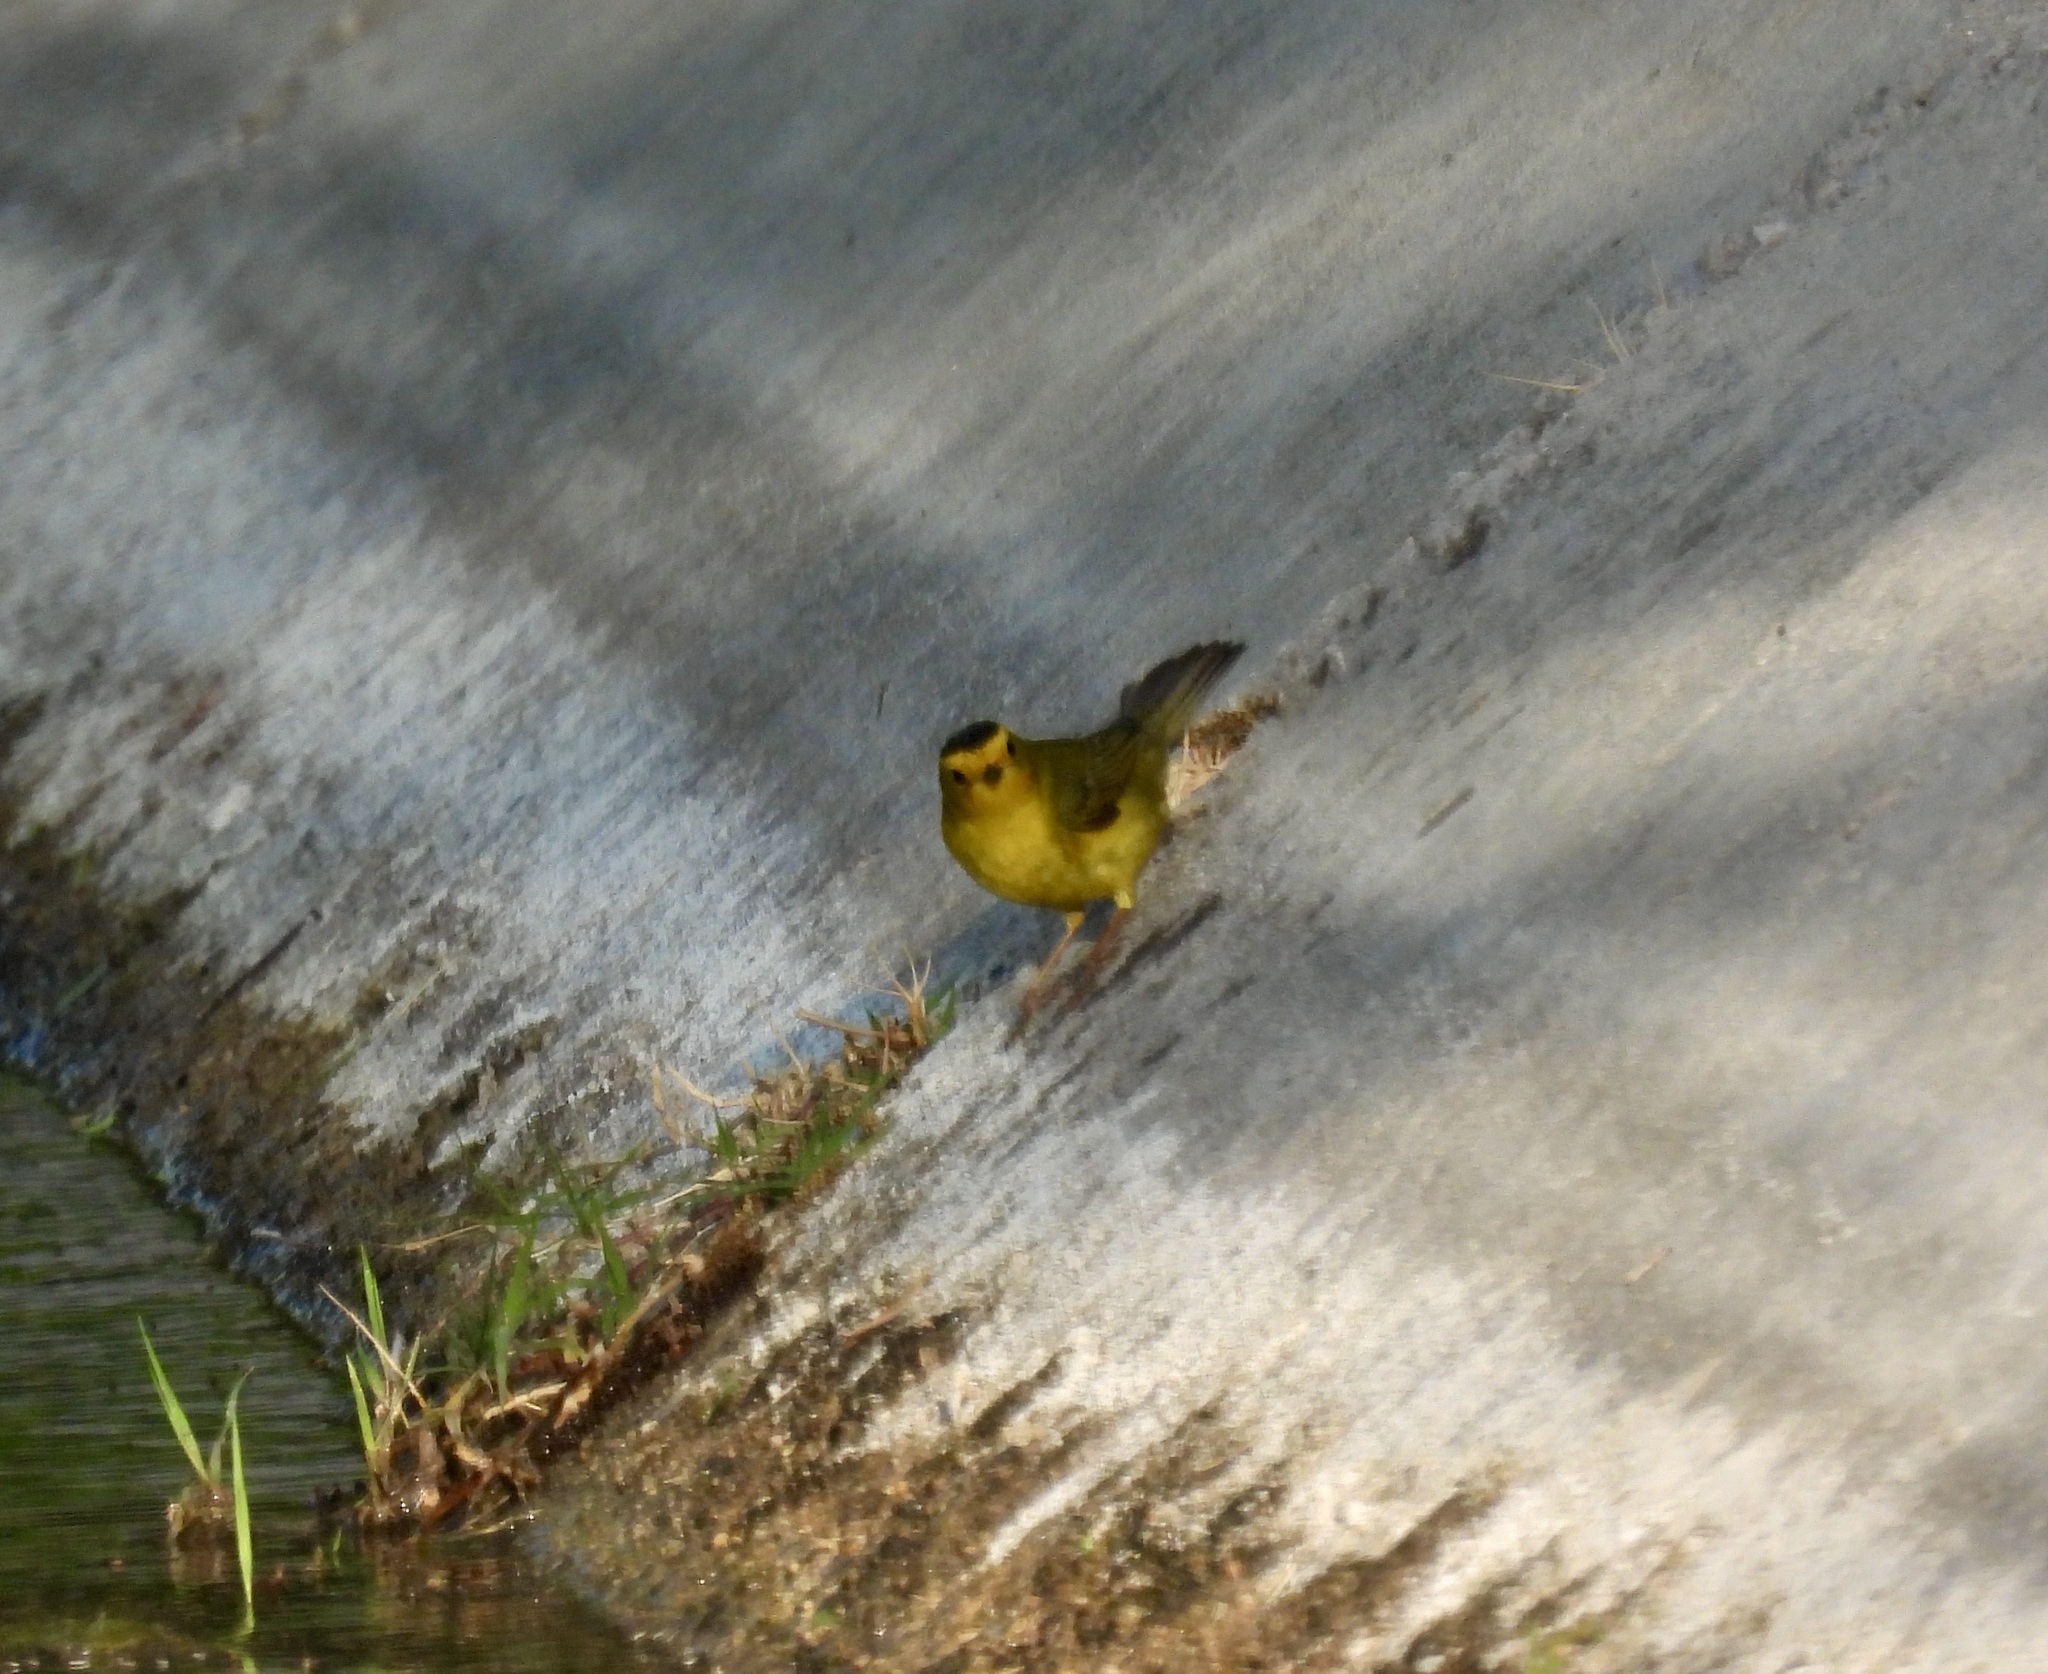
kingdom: Animalia
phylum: Chordata
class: Aves
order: Passeriformes
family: Parulidae
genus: Cardellina
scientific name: Cardellina pusilla
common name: Wilson's warbler
